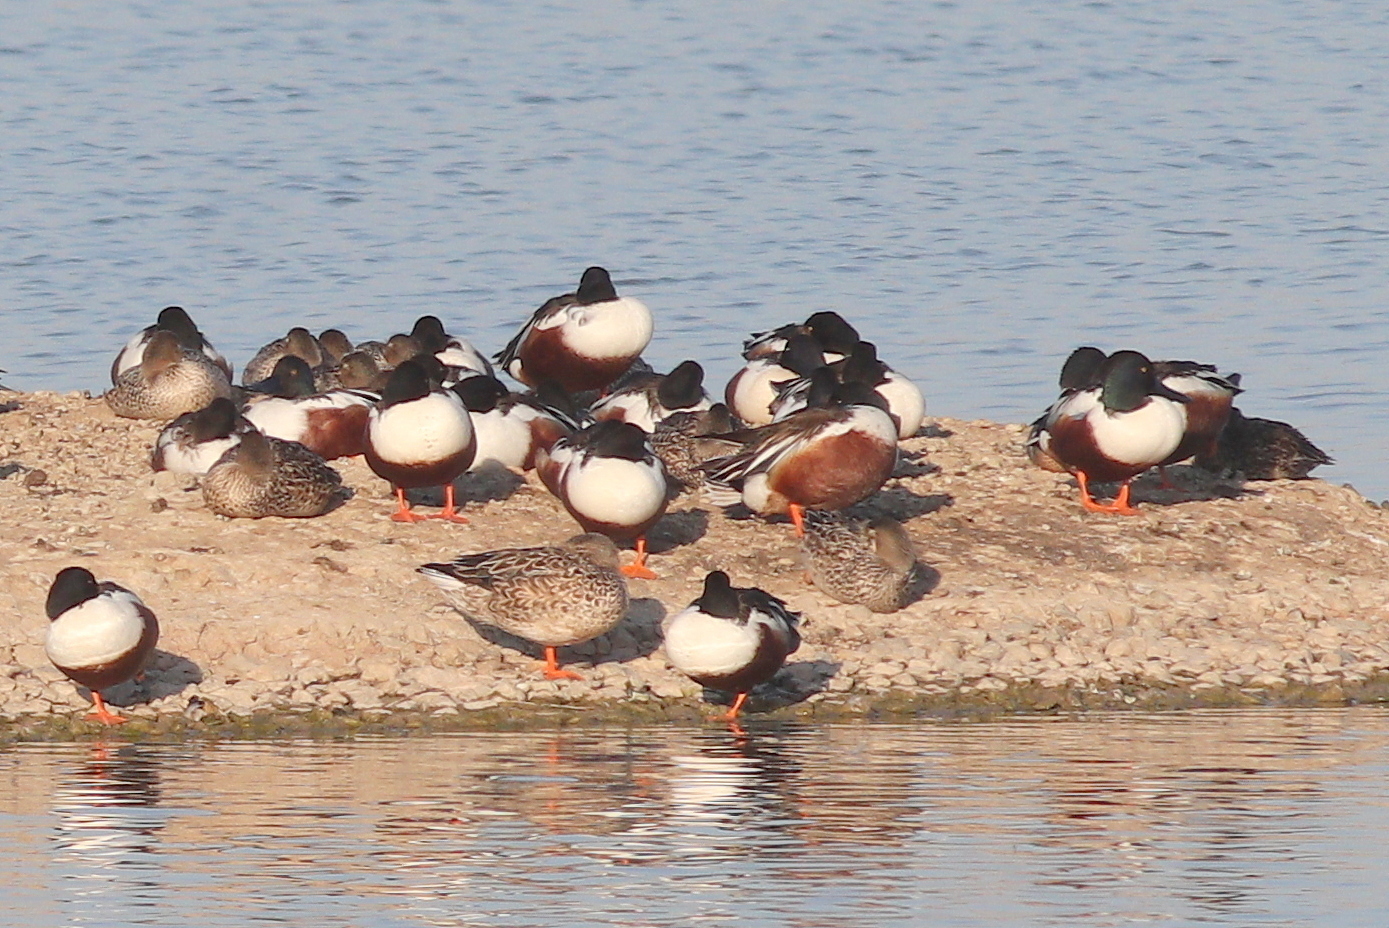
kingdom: Animalia
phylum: Chordata
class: Aves
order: Anseriformes
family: Anatidae
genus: Spatula
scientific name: Spatula clypeata
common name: Northern shoveler
